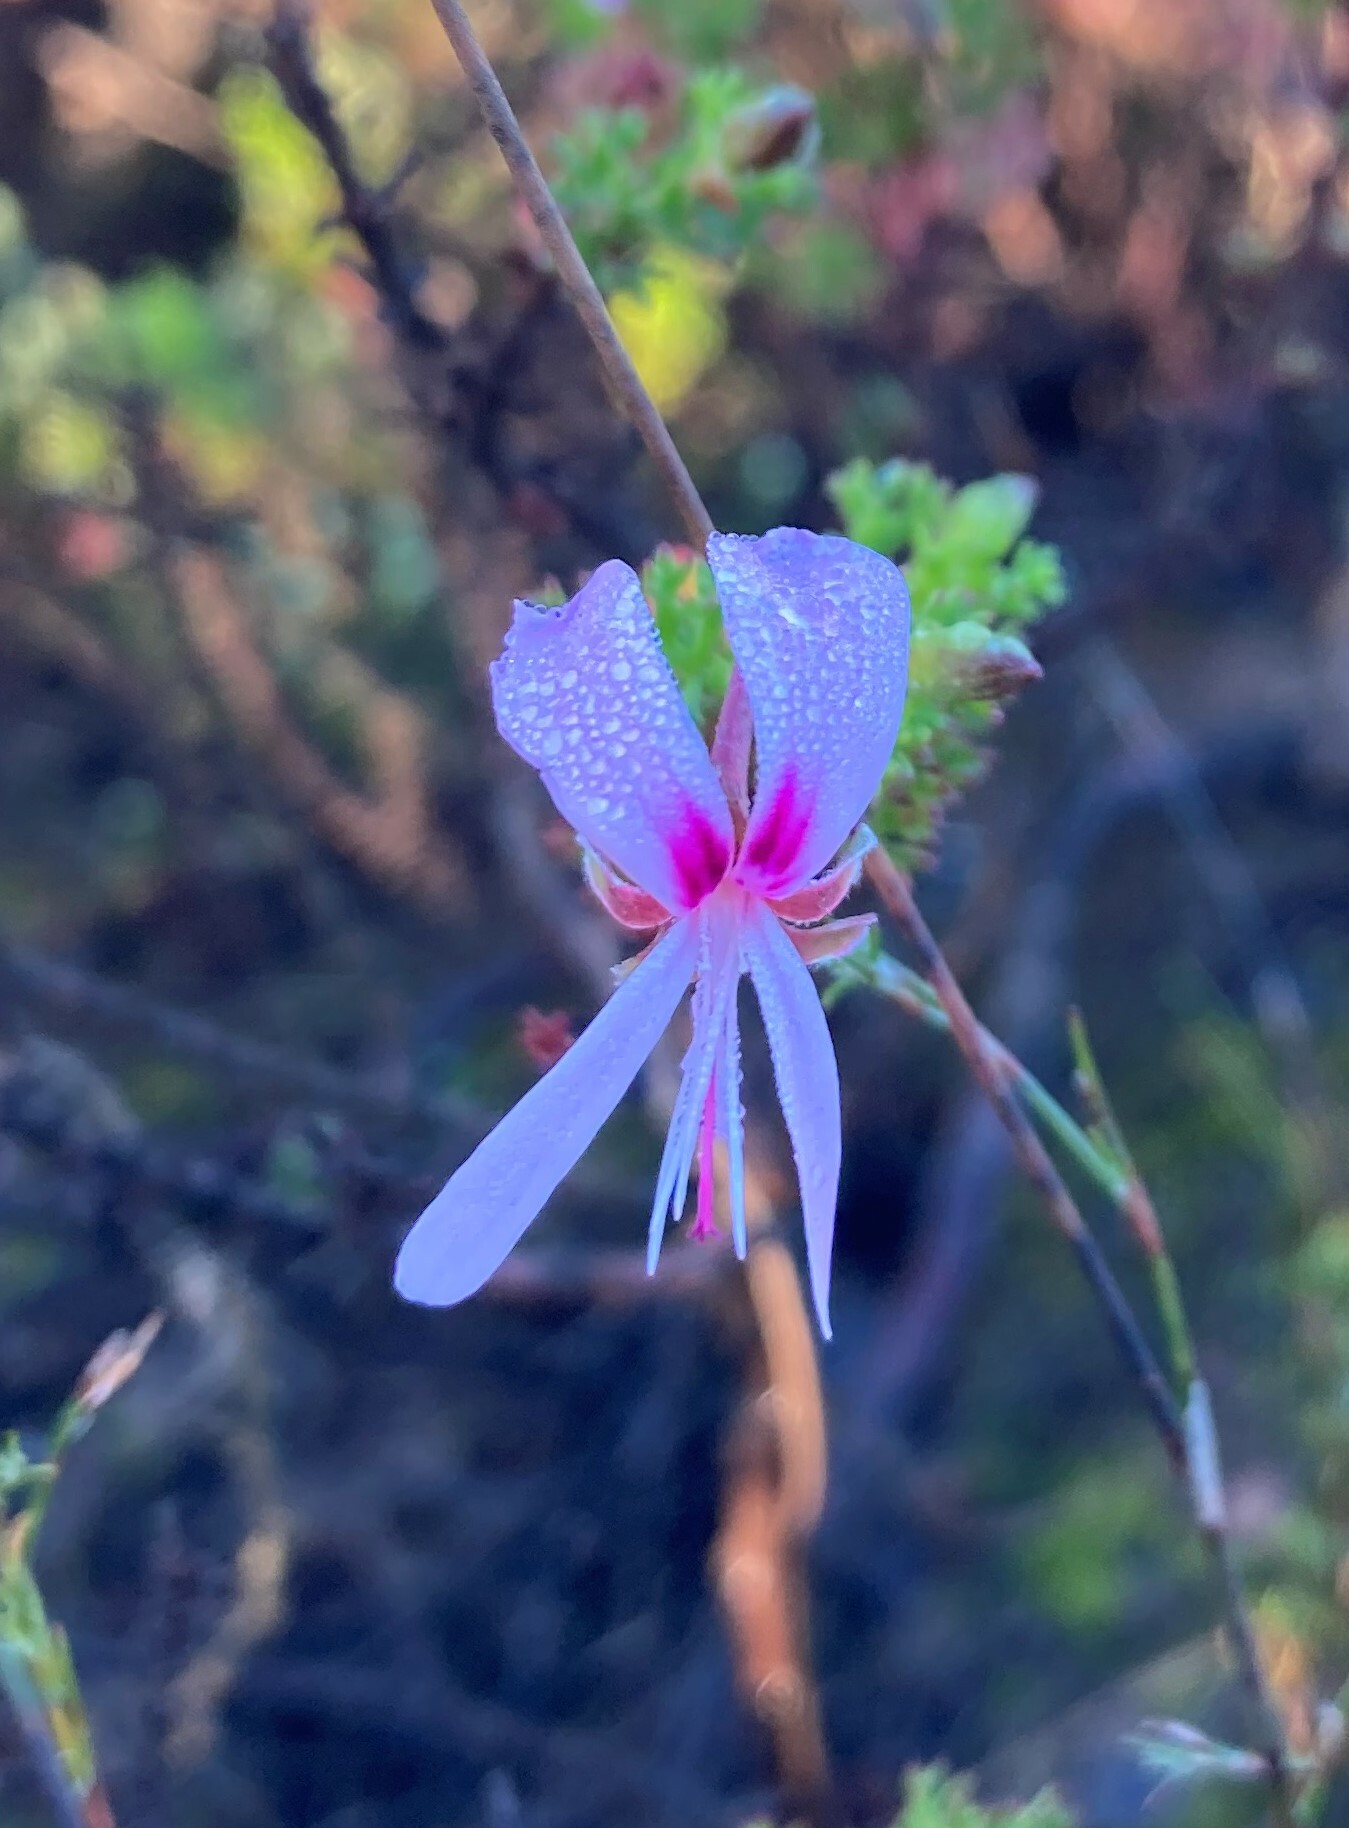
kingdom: Plantae
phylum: Tracheophyta
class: Magnoliopsida
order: Geraniales
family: Geraniaceae
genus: Pelargonium
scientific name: Pelargonium abrotanifolium
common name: Southernwood geranium
